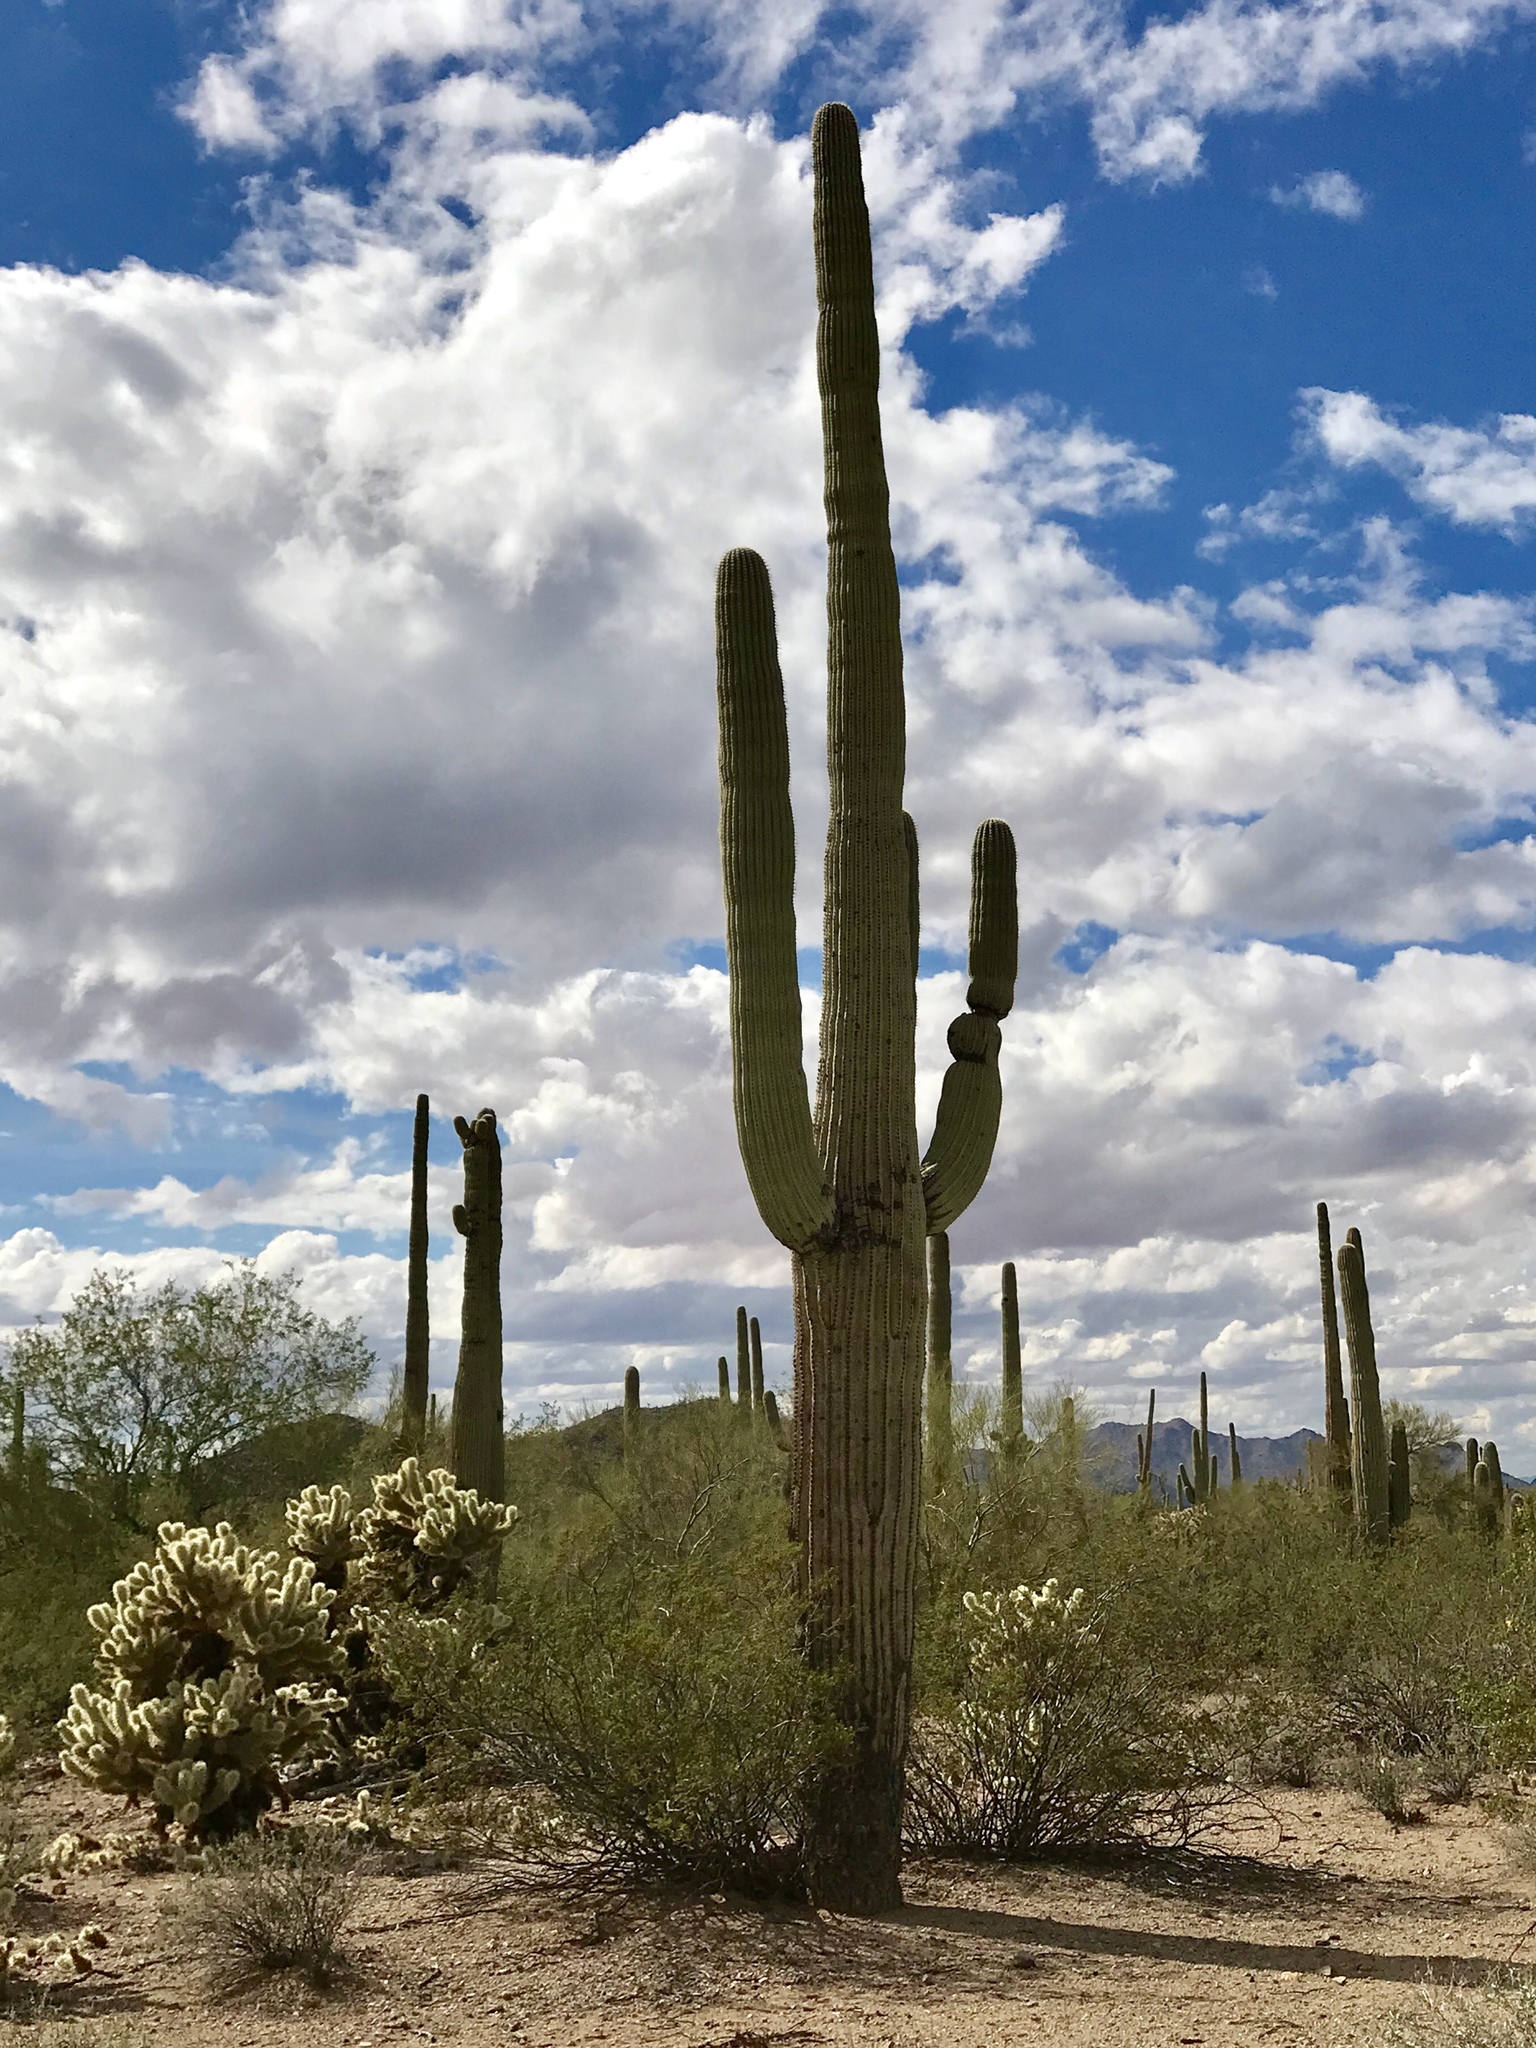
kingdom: Plantae
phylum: Tracheophyta
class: Magnoliopsida
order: Caryophyllales
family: Cactaceae
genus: Carnegiea
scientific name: Carnegiea gigantea
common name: Saguaro
